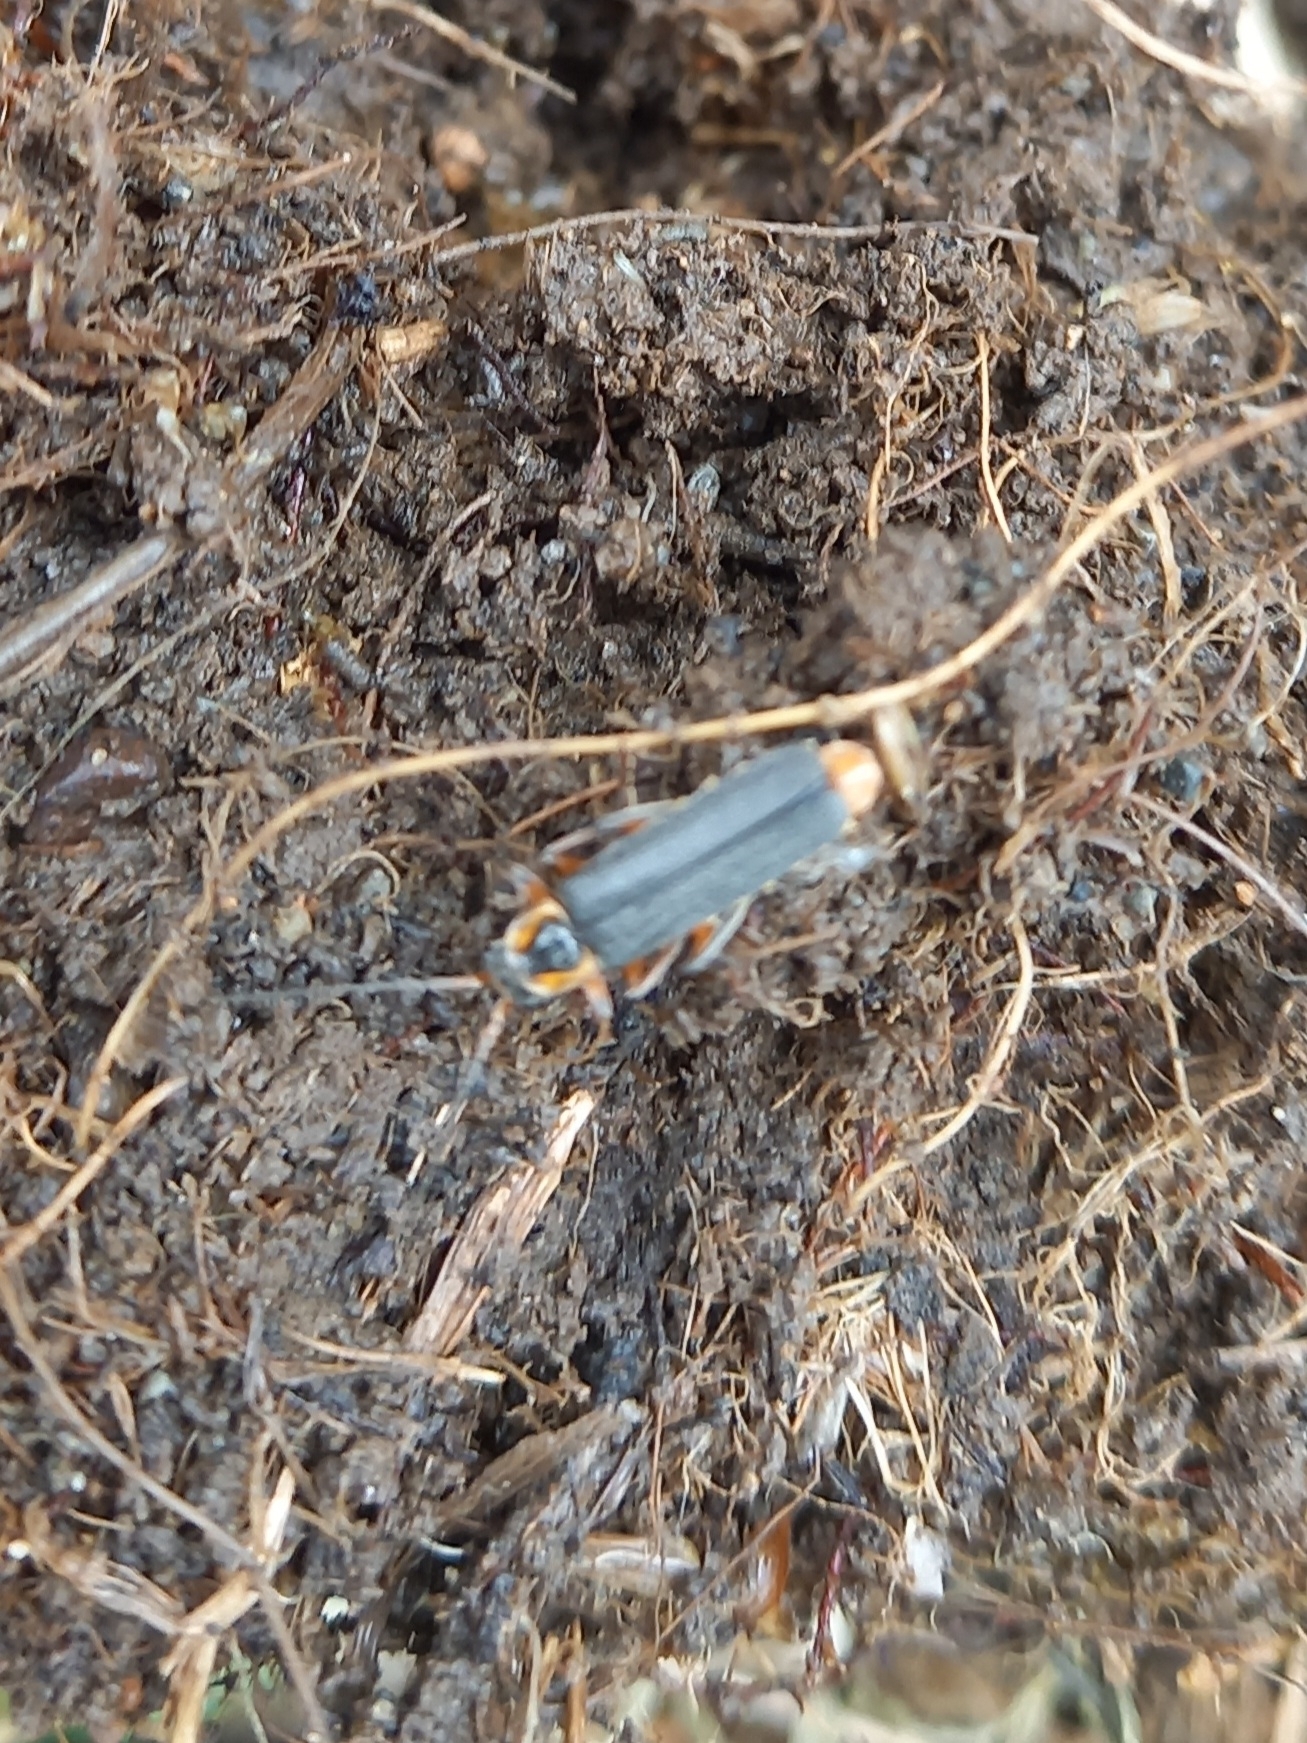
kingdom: Animalia
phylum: Arthropoda
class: Insecta
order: Coleoptera
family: Cantharidae
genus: Cantharis
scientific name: Cantharis nigricans
